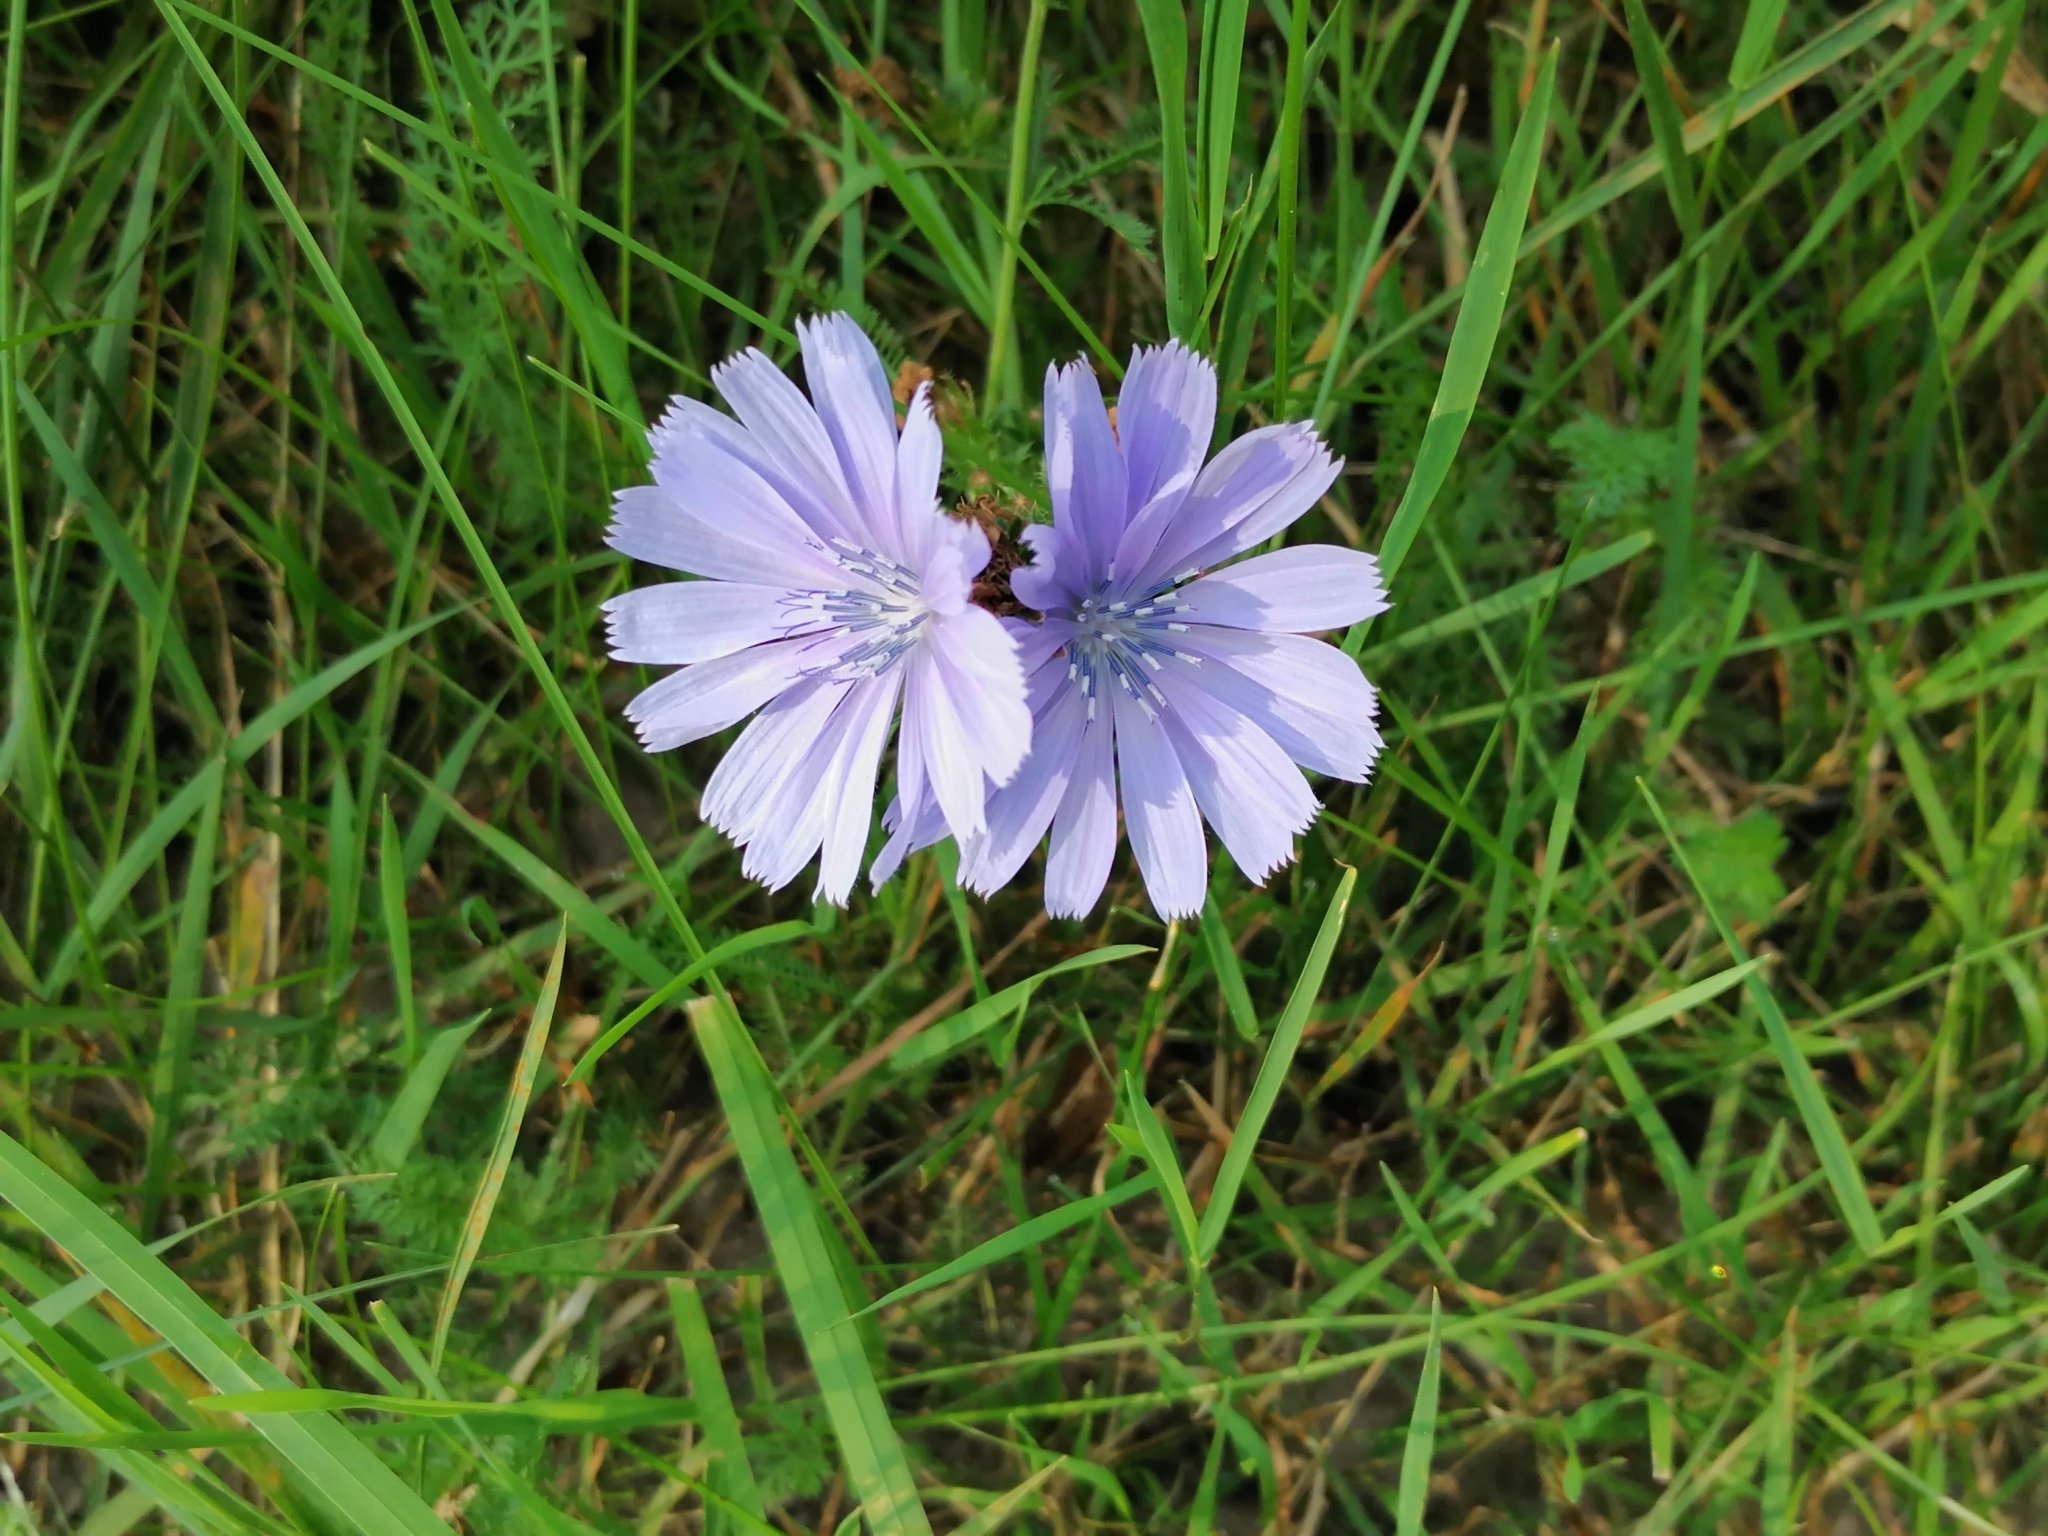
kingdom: Plantae
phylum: Tracheophyta
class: Magnoliopsida
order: Asterales
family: Asteraceae
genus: Cichorium
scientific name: Cichorium intybus
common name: Chicory
